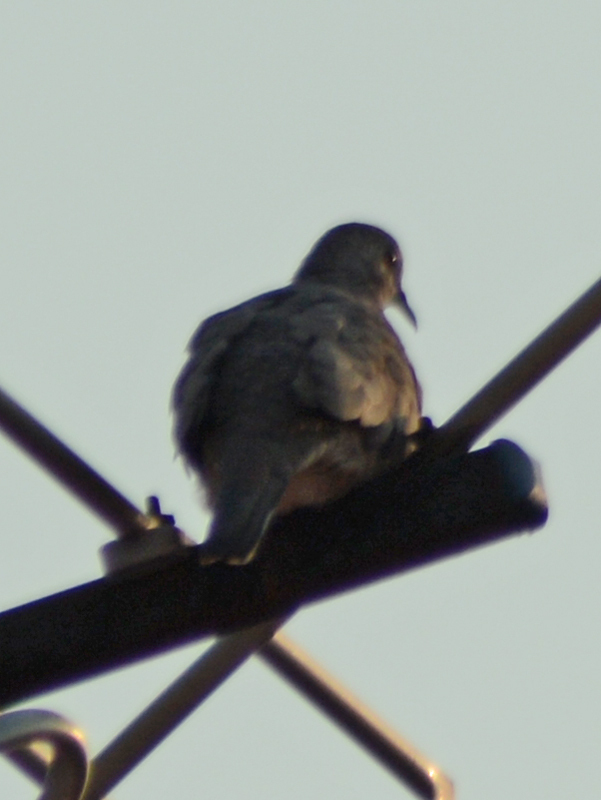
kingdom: Animalia
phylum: Chordata
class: Aves
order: Columbiformes
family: Columbidae
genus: Columbina
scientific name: Columbina inca
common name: Inca dove
